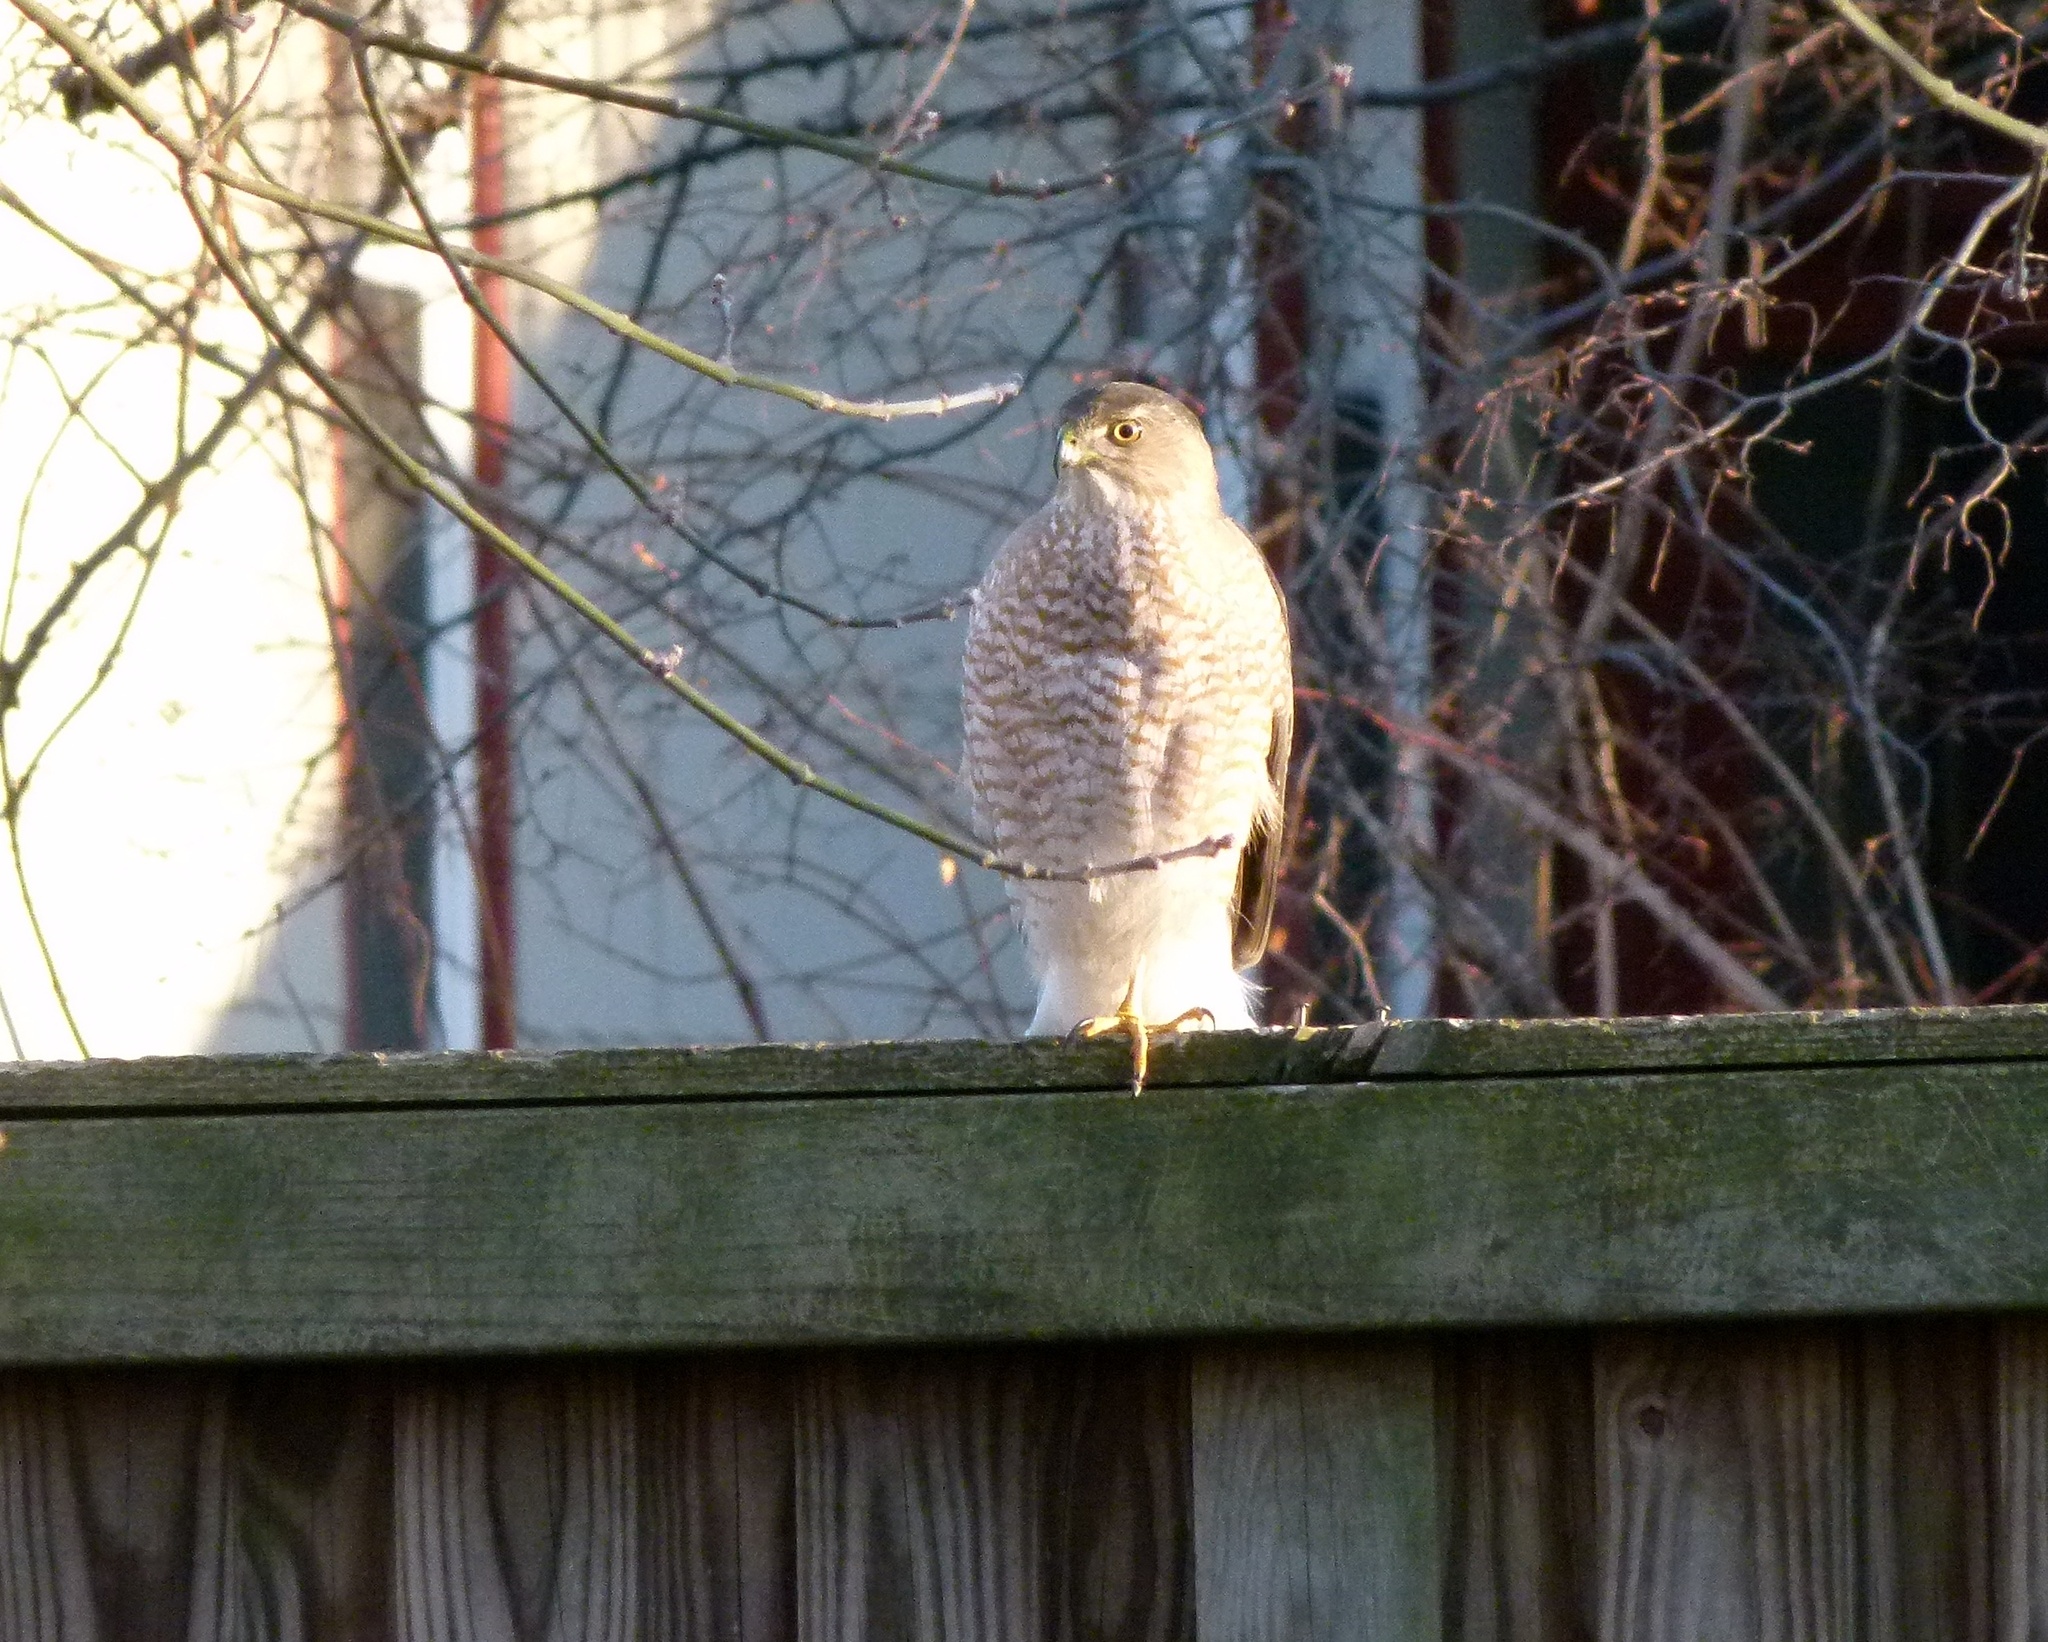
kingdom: Animalia
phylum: Chordata
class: Aves
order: Accipitriformes
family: Accipitridae
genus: Accipiter
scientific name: Accipiter cooperii
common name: Cooper's hawk
